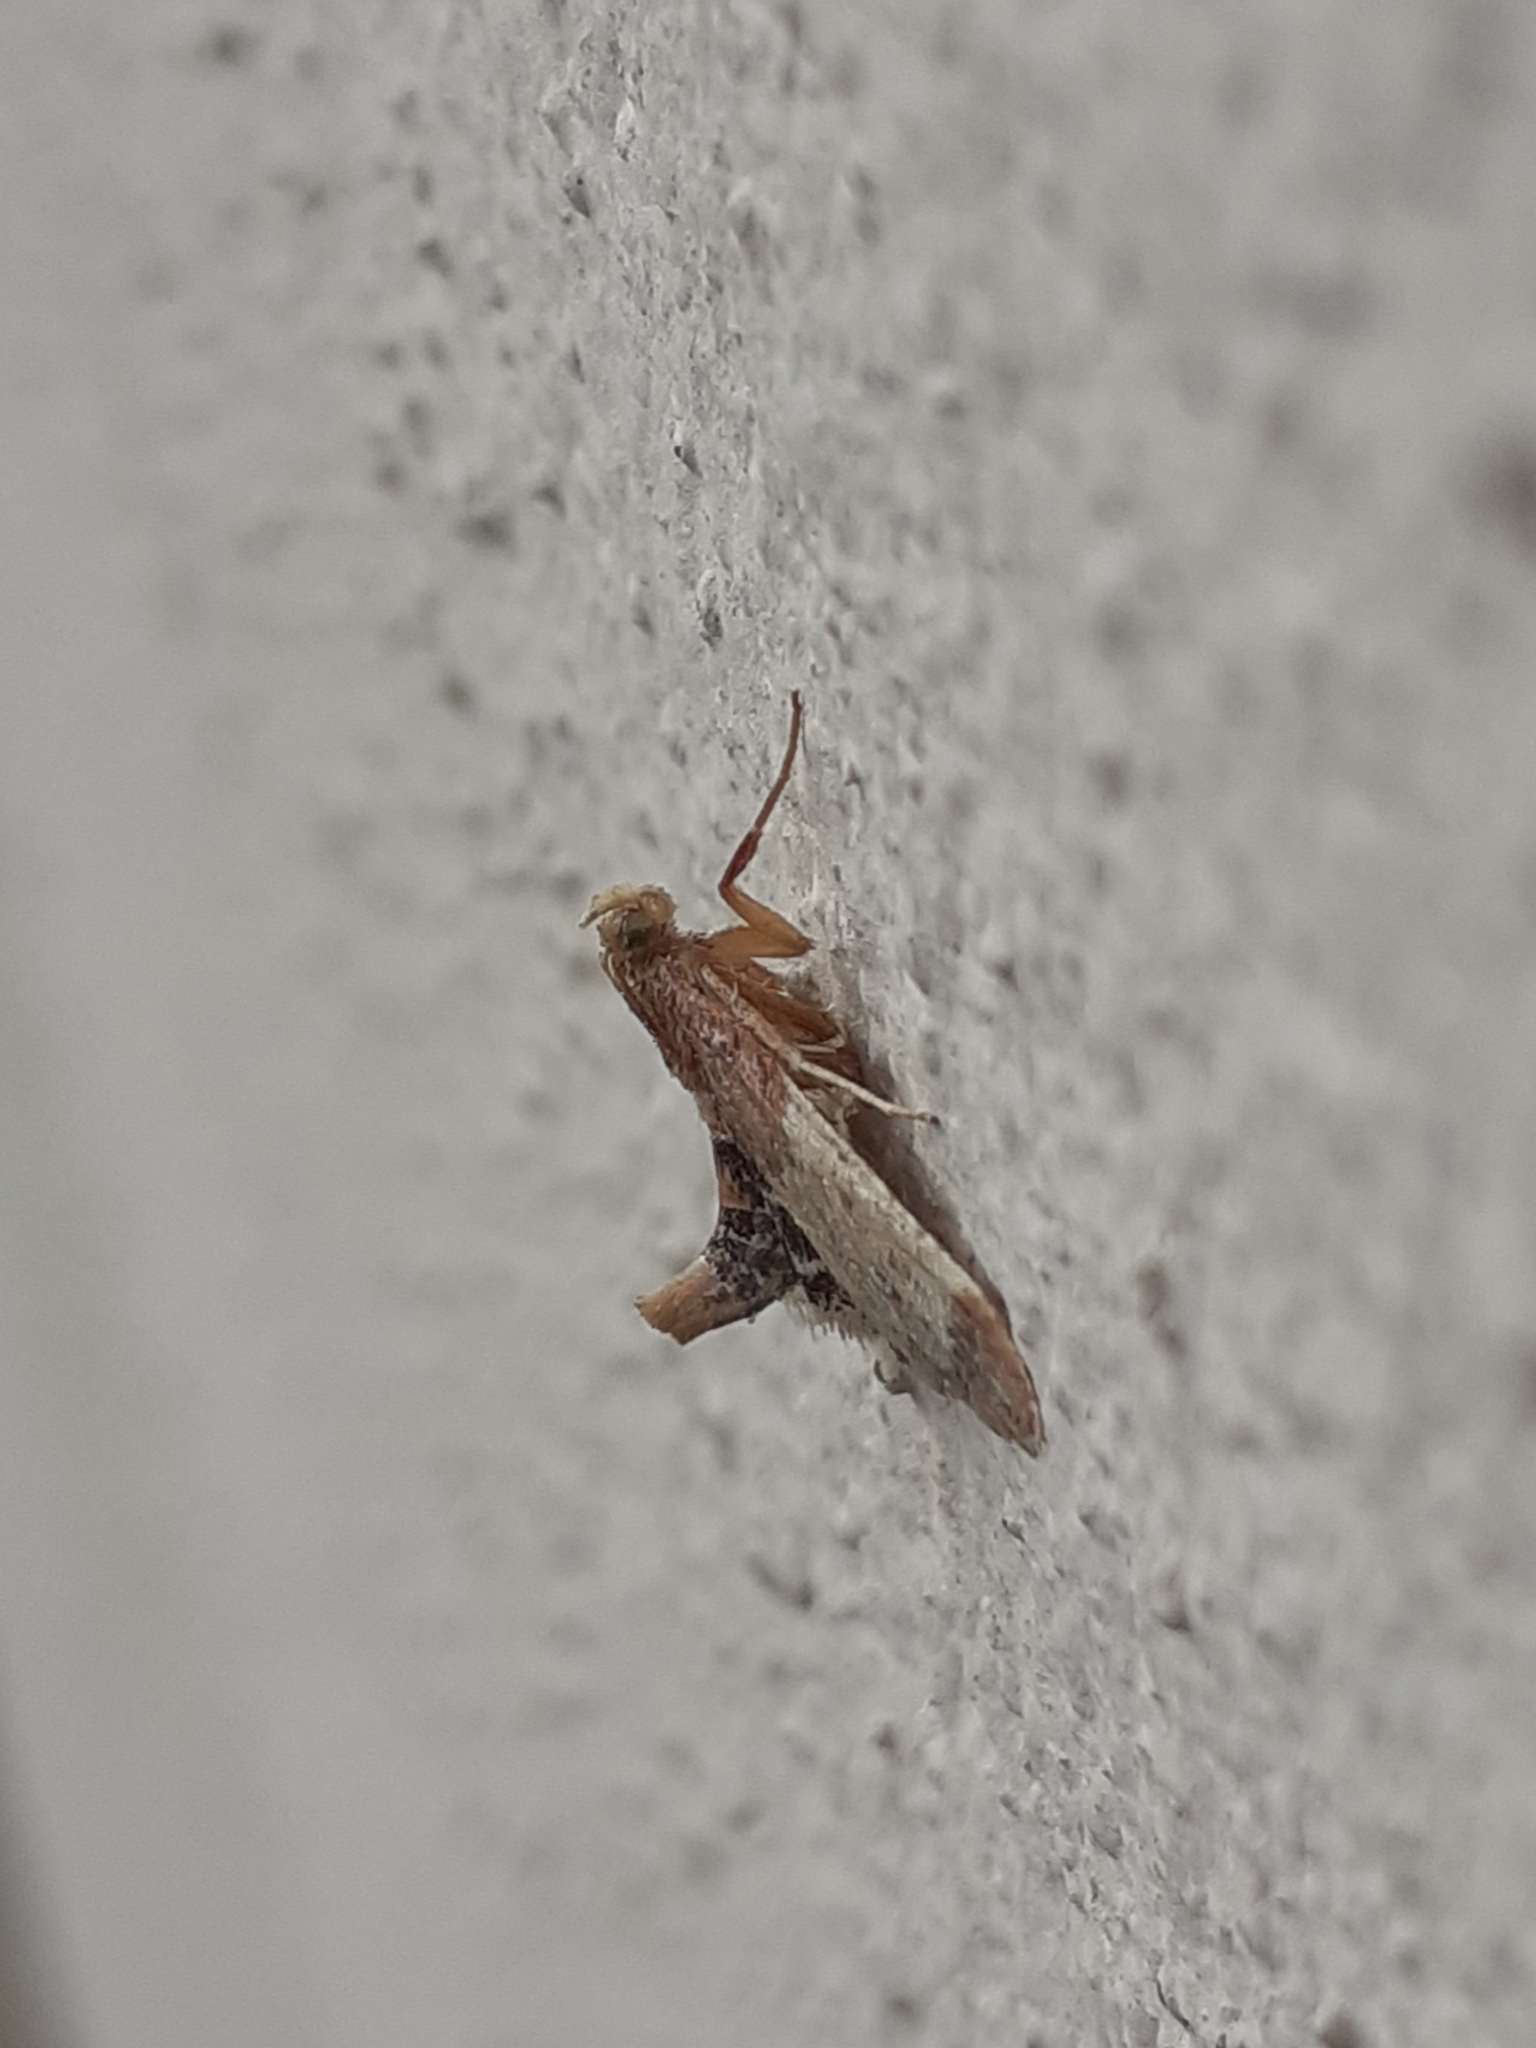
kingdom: Animalia
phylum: Arthropoda
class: Insecta
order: Lepidoptera
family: Pyralidae
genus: Pyralis
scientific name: Pyralis farinalis
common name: Meal moth
